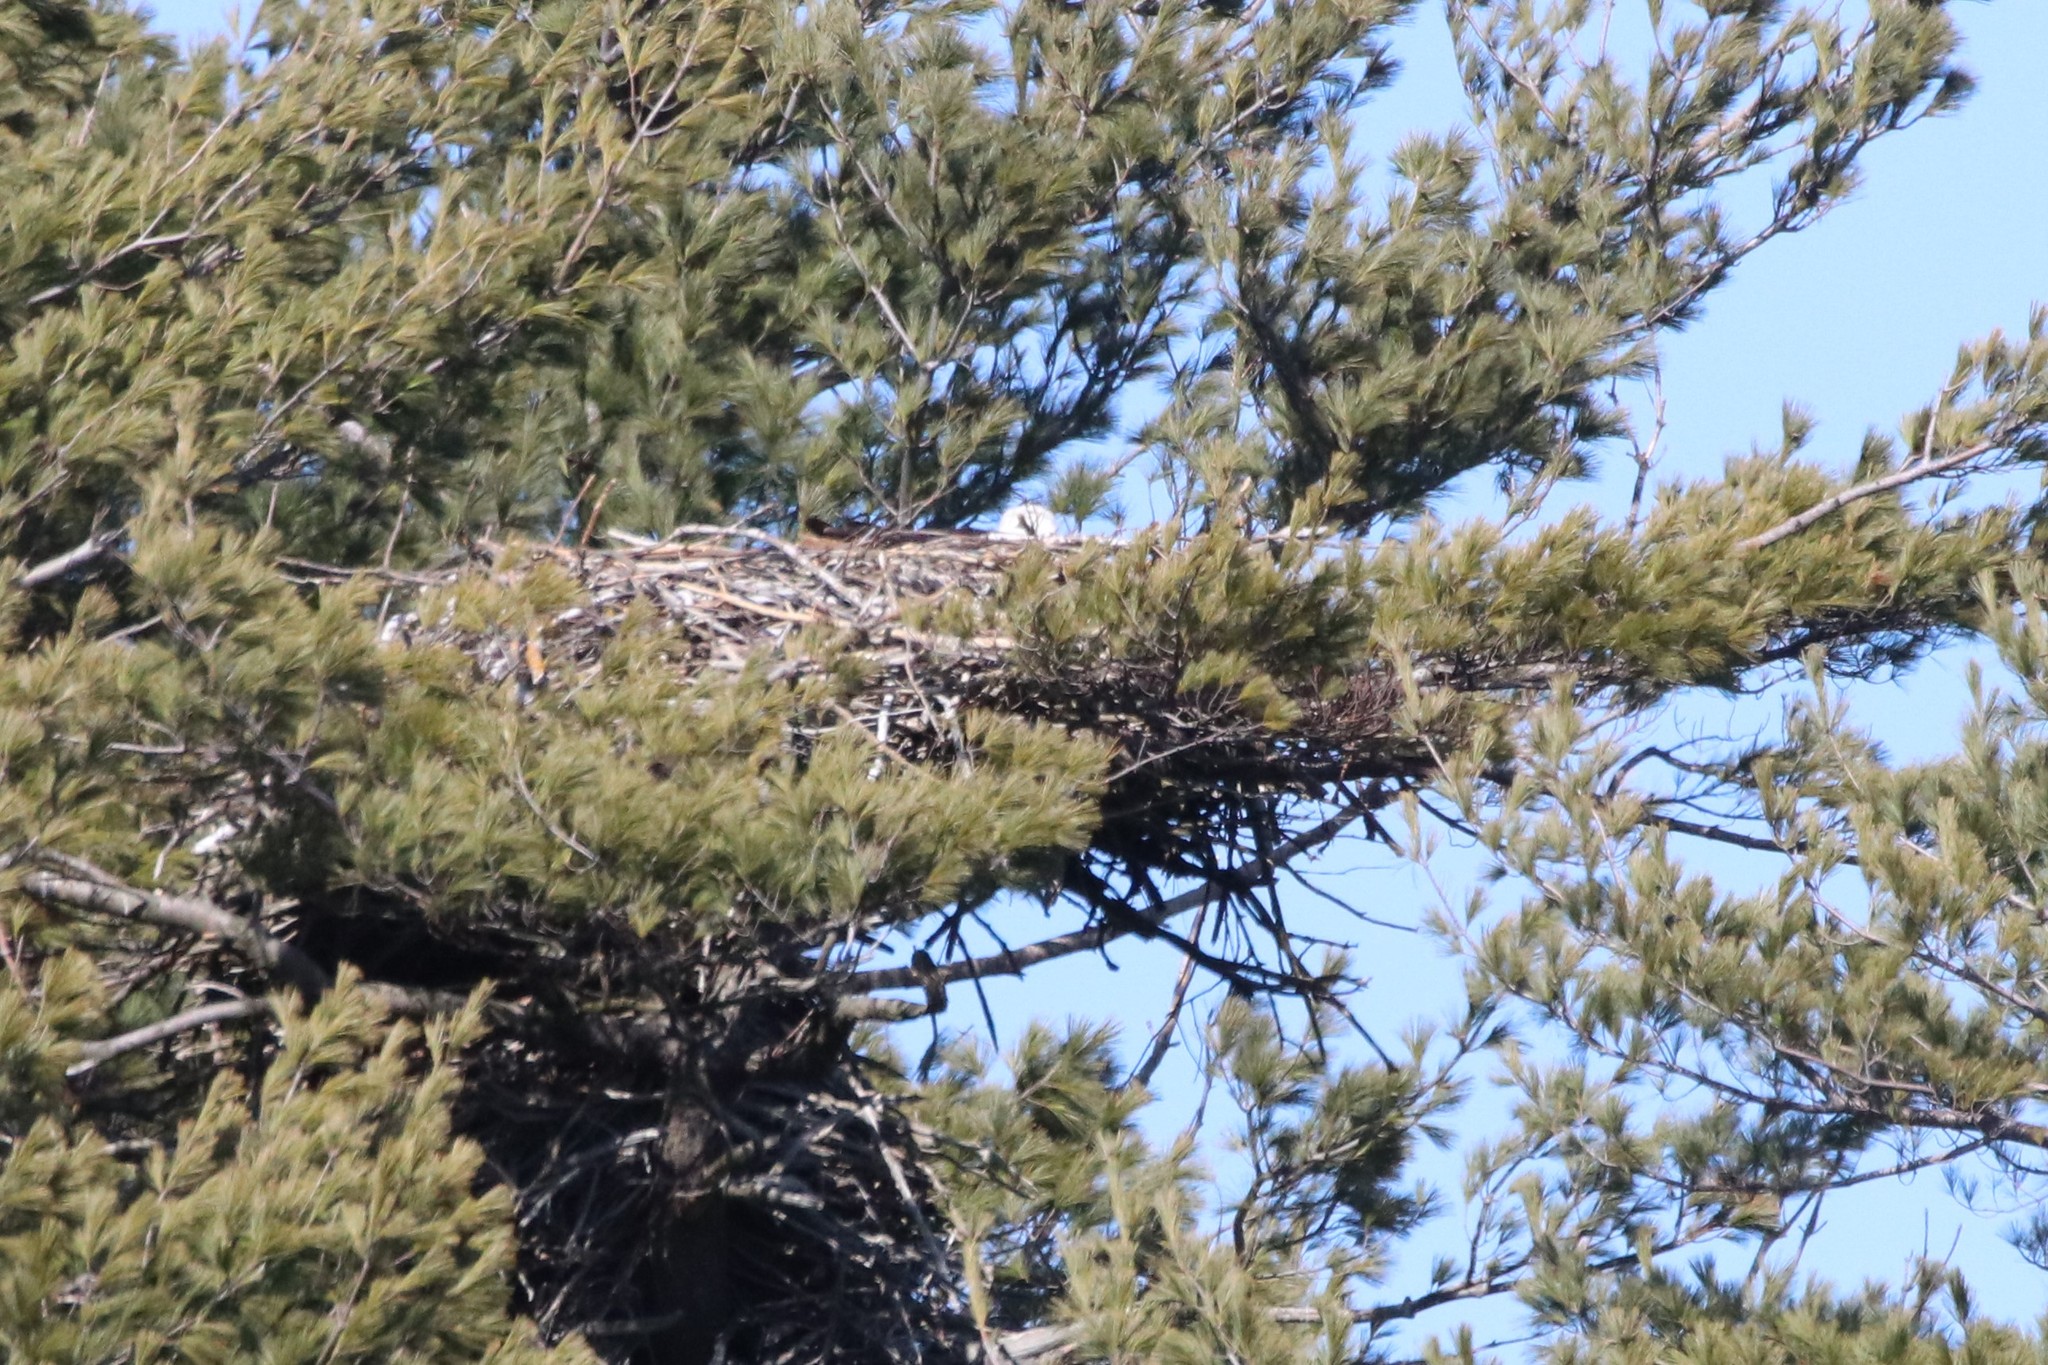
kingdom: Animalia
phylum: Chordata
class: Aves
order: Accipitriformes
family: Accipitridae
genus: Haliaeetus
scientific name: Haliaeetus leucocephalus
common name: Bald eagle
